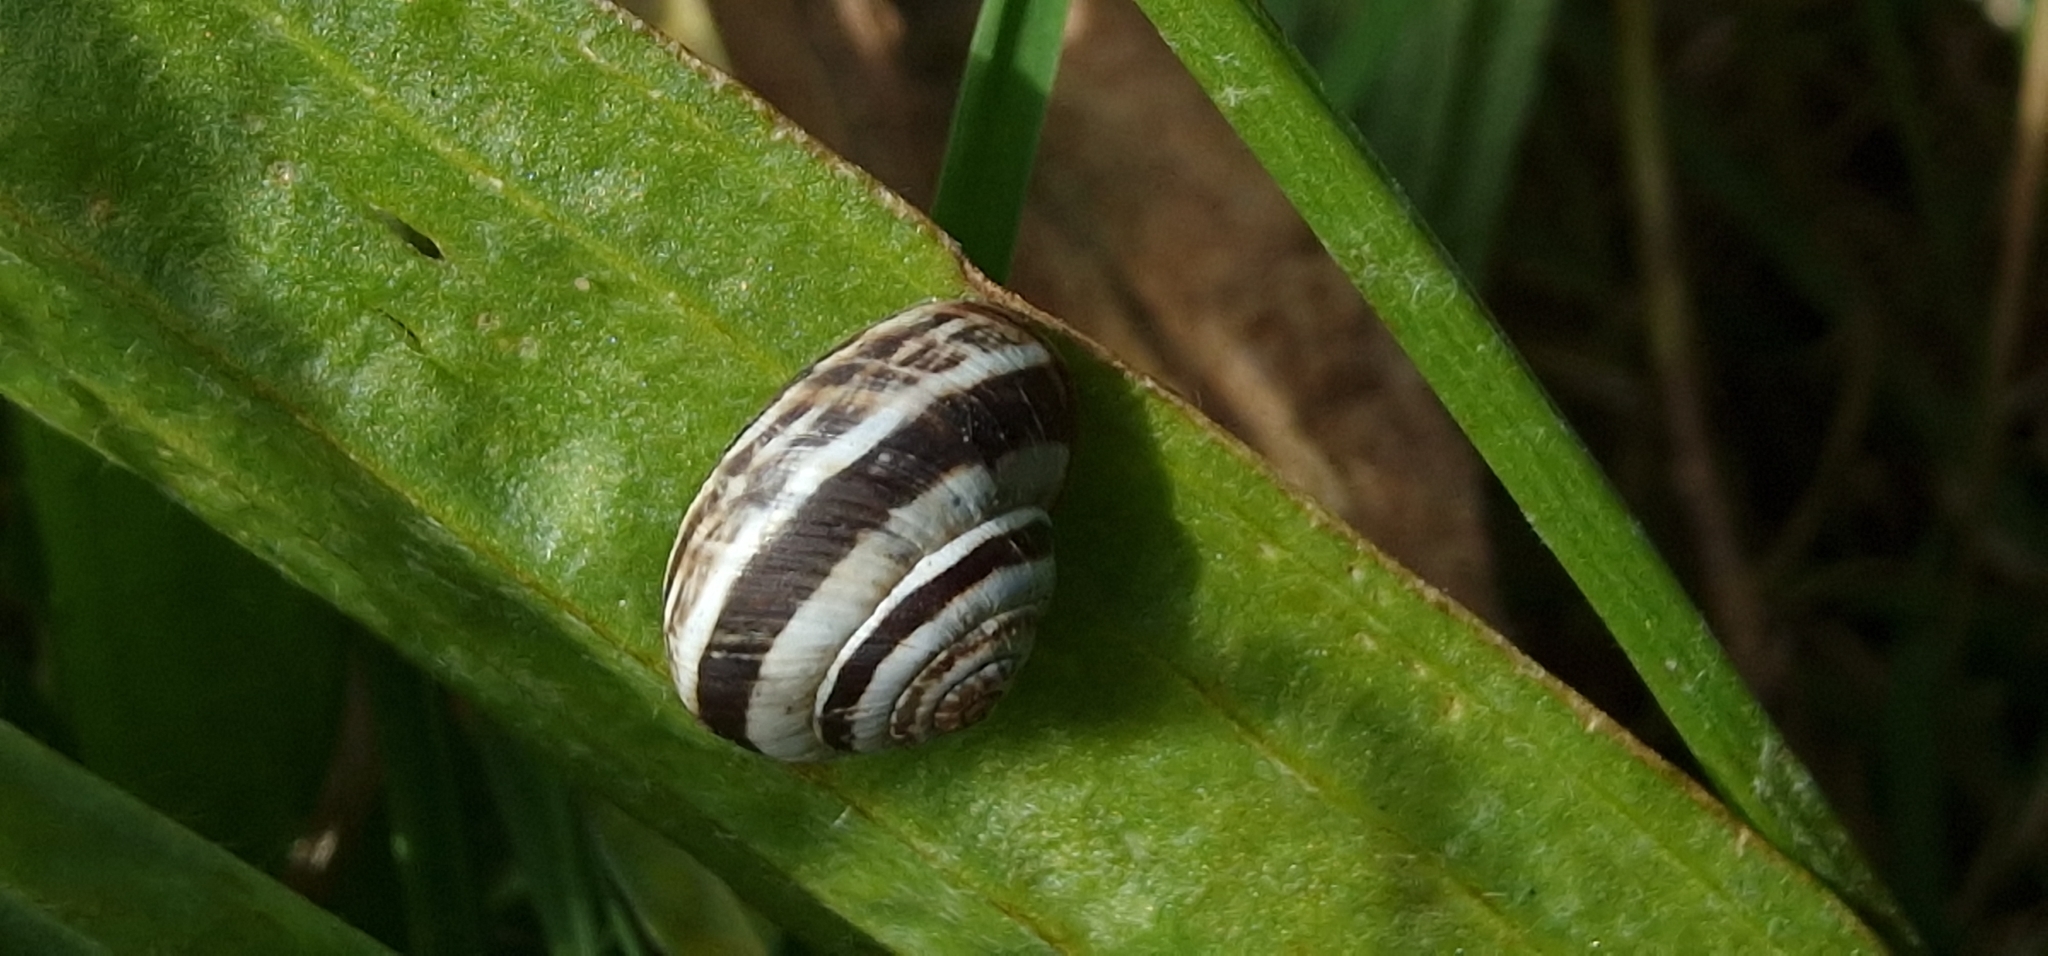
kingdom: Animalia
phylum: Mollusca
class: Gastropoda
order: Stylommatophora
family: Geomitridae
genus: Cernuella
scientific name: Cernuella virgata
